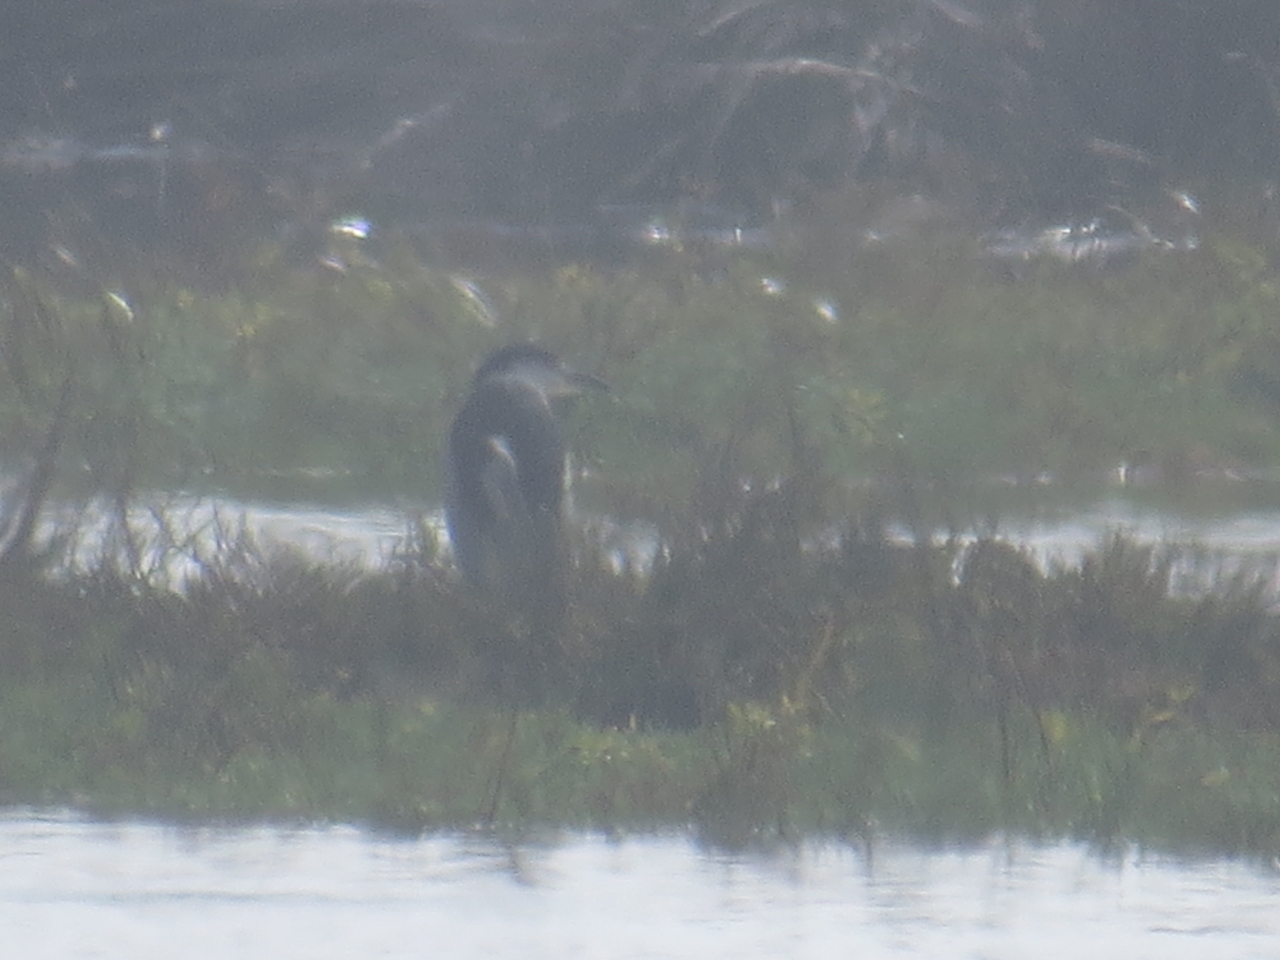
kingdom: Animalia
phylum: Chordata
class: Aves
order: Pelecaniformes
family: Ardeidae
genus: Nycticorax
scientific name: Nycticorax nycticorax
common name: Black-crowned night heron
